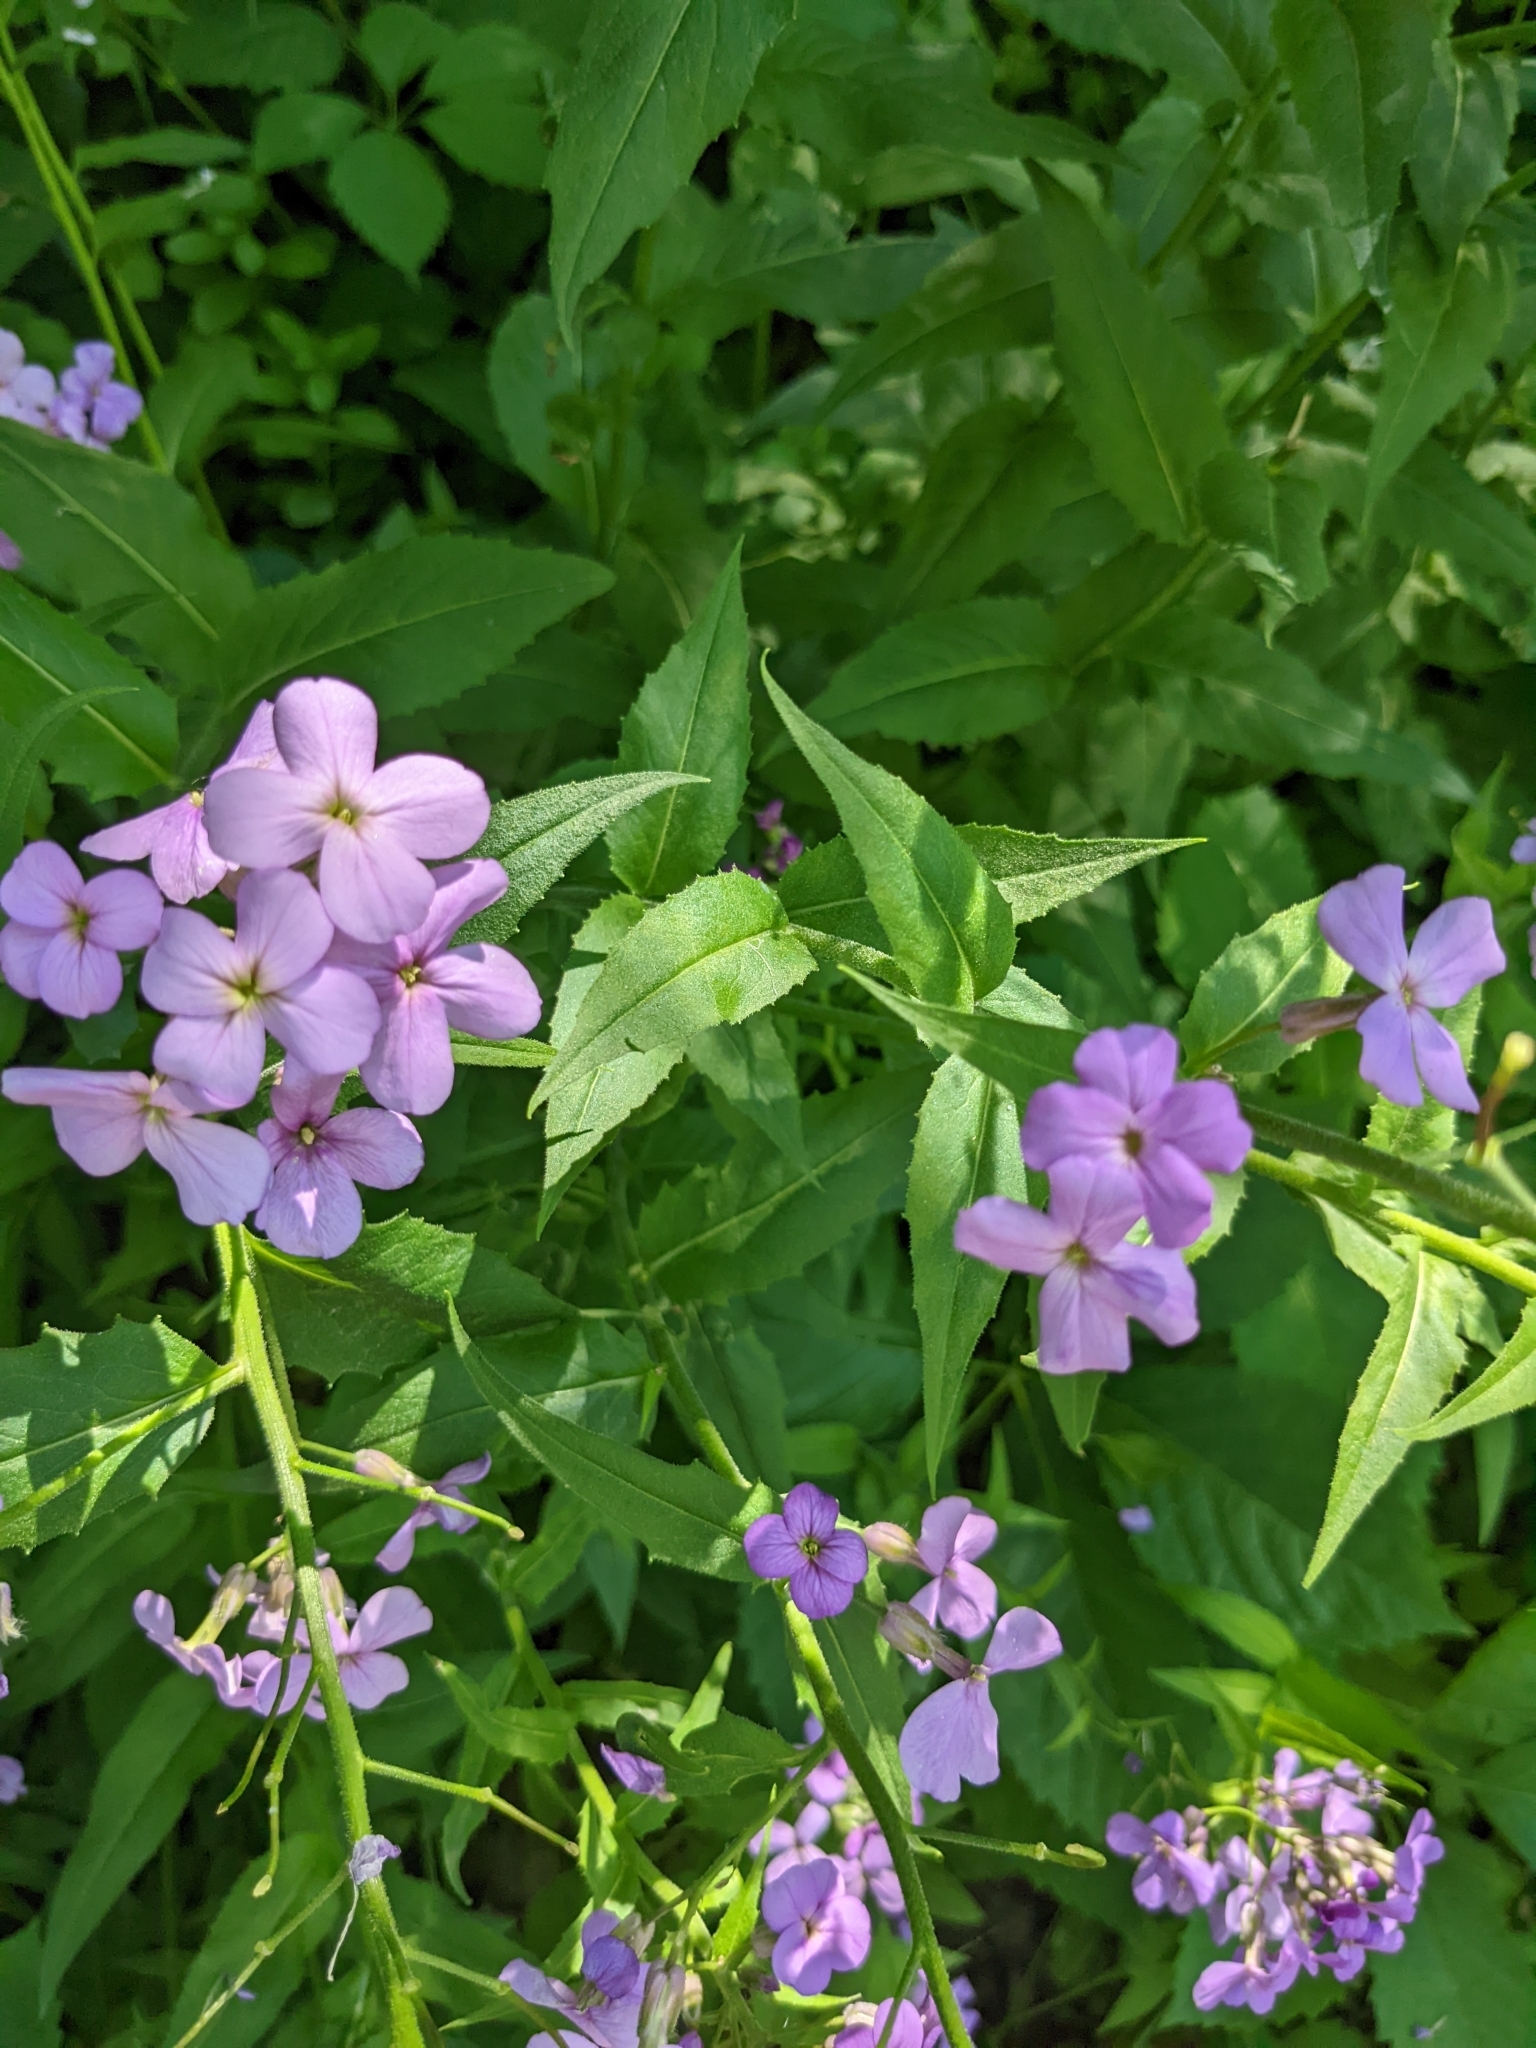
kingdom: Plantae
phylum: Tracheophyta
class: Magnoliopsida
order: Brassicales
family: Brassicaceae
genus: Hesperis
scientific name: Hesperis matronalis
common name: Dame's-violet
